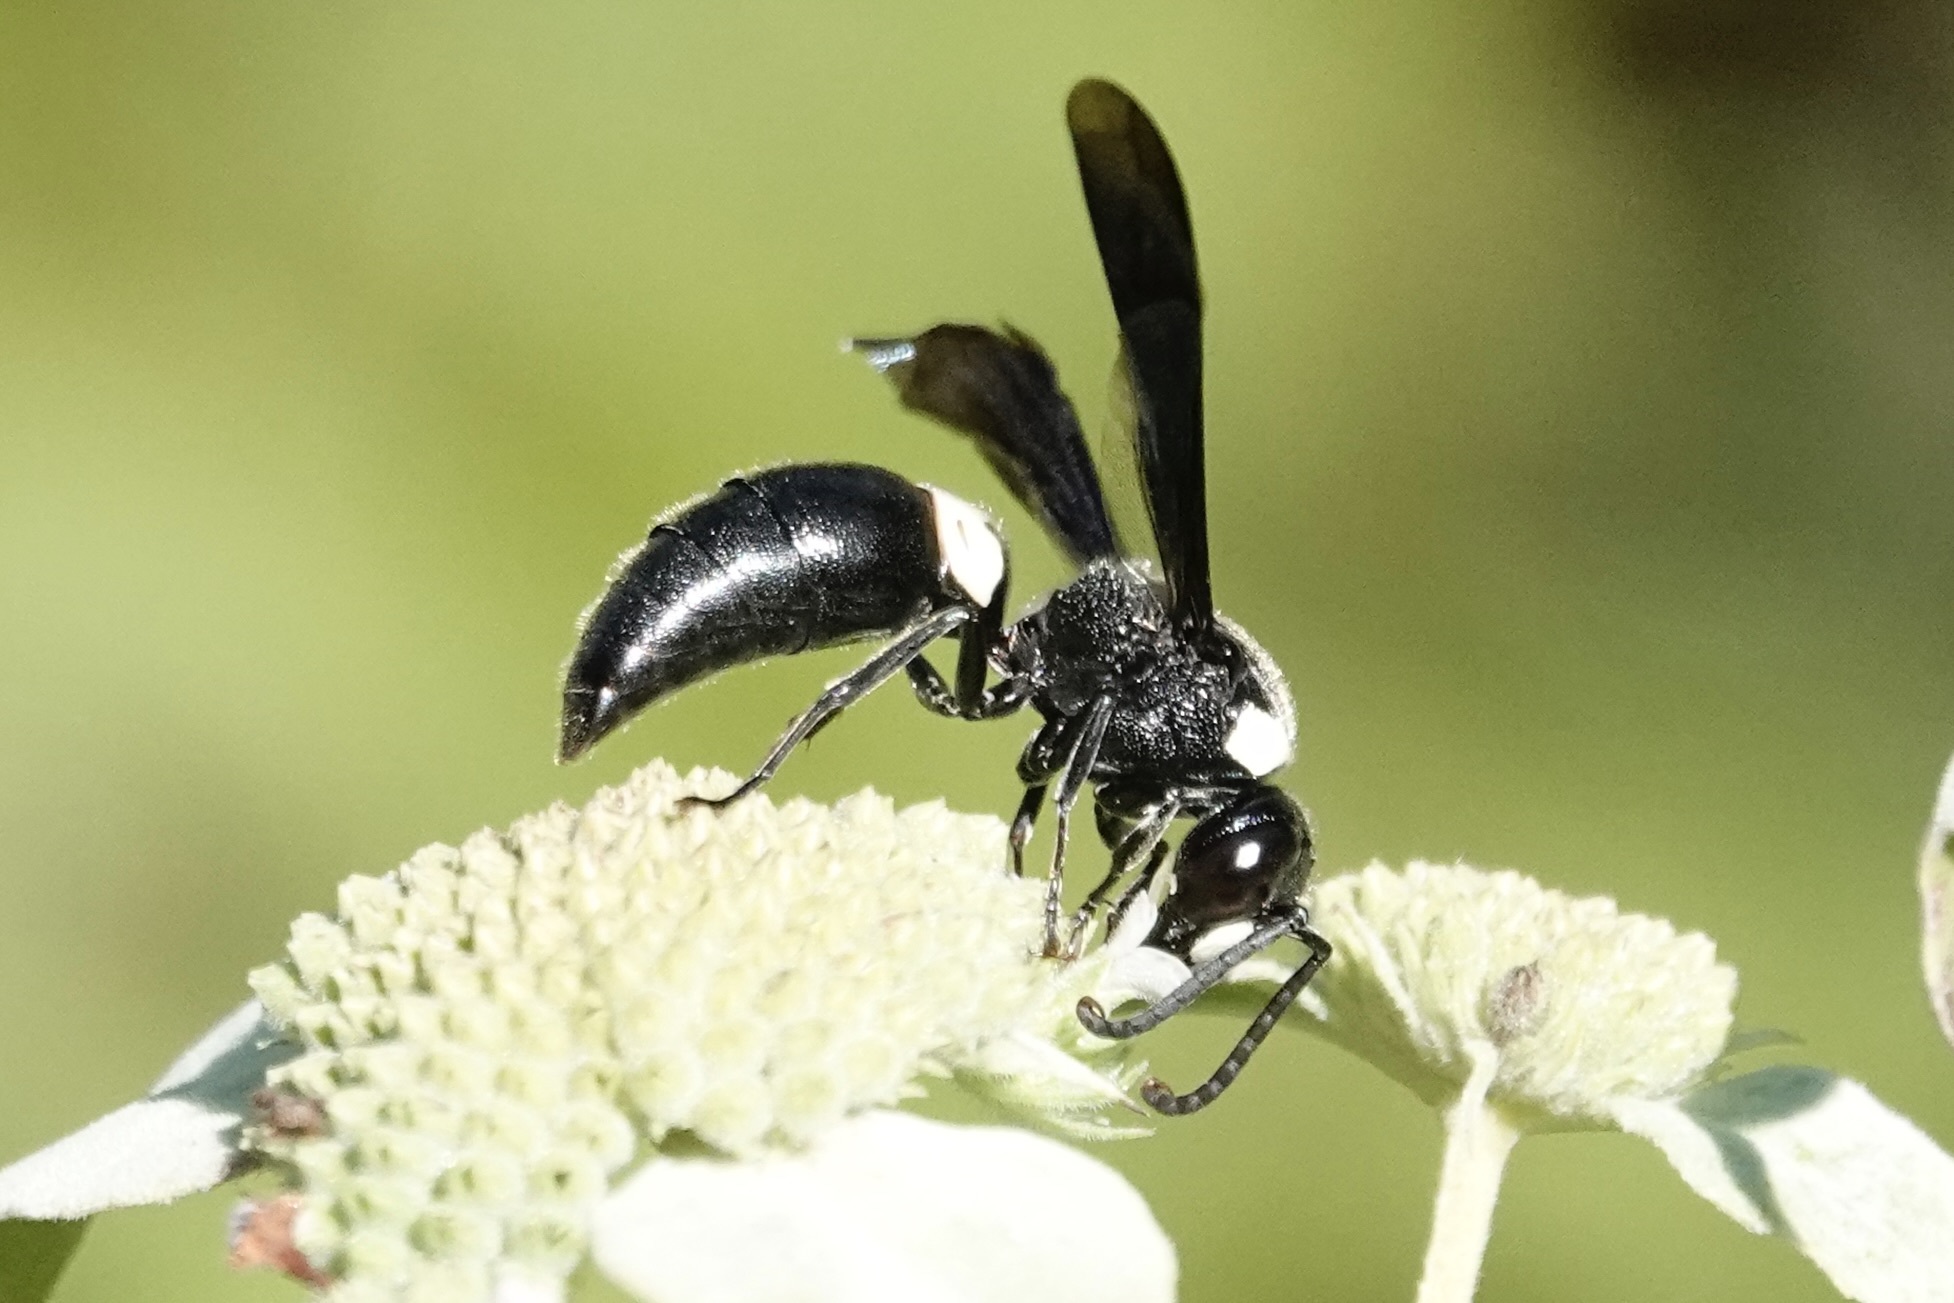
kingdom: Animalia
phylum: Arthropoda
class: Insecta
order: Hymenoptera
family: Eumenidae
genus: Monobia
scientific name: Monobia quadridens
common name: Four-toothed mason wasp
